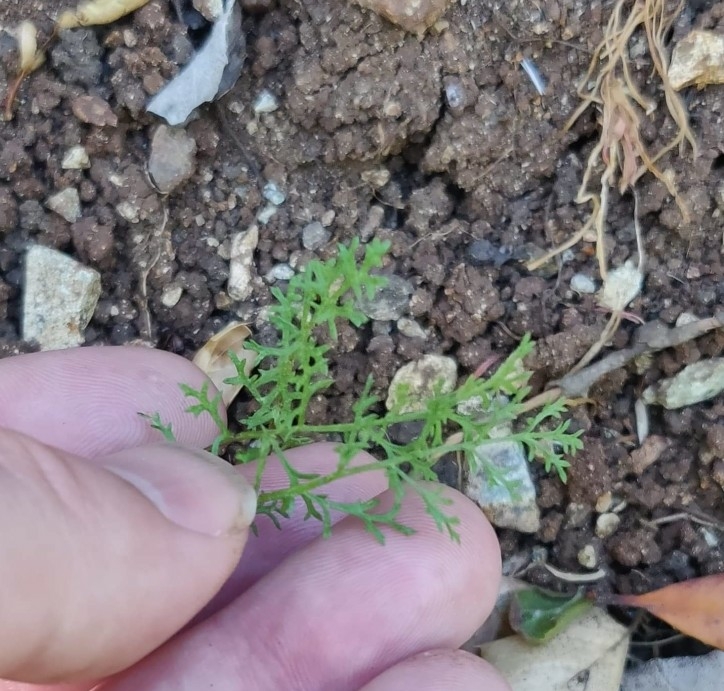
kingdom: Plantae
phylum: Tracheophyta
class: Magnoliopsida
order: Ericales
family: Polemoniaceae
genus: Gilia
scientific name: Gilia achilleifolia
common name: California gily-flower
